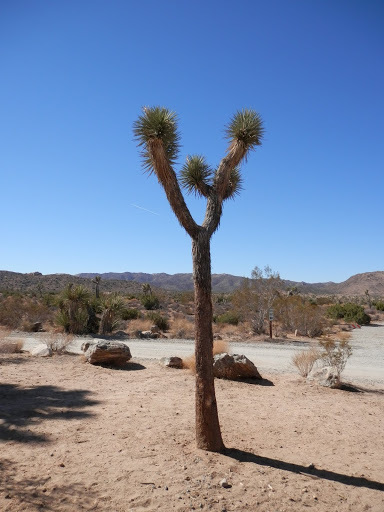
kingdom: Plantae
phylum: Tracheophyta
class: Liliopsida
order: Asparagales
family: Asparagaceae
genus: Yucca
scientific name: Yucca brevifolia
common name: Joshua tree
